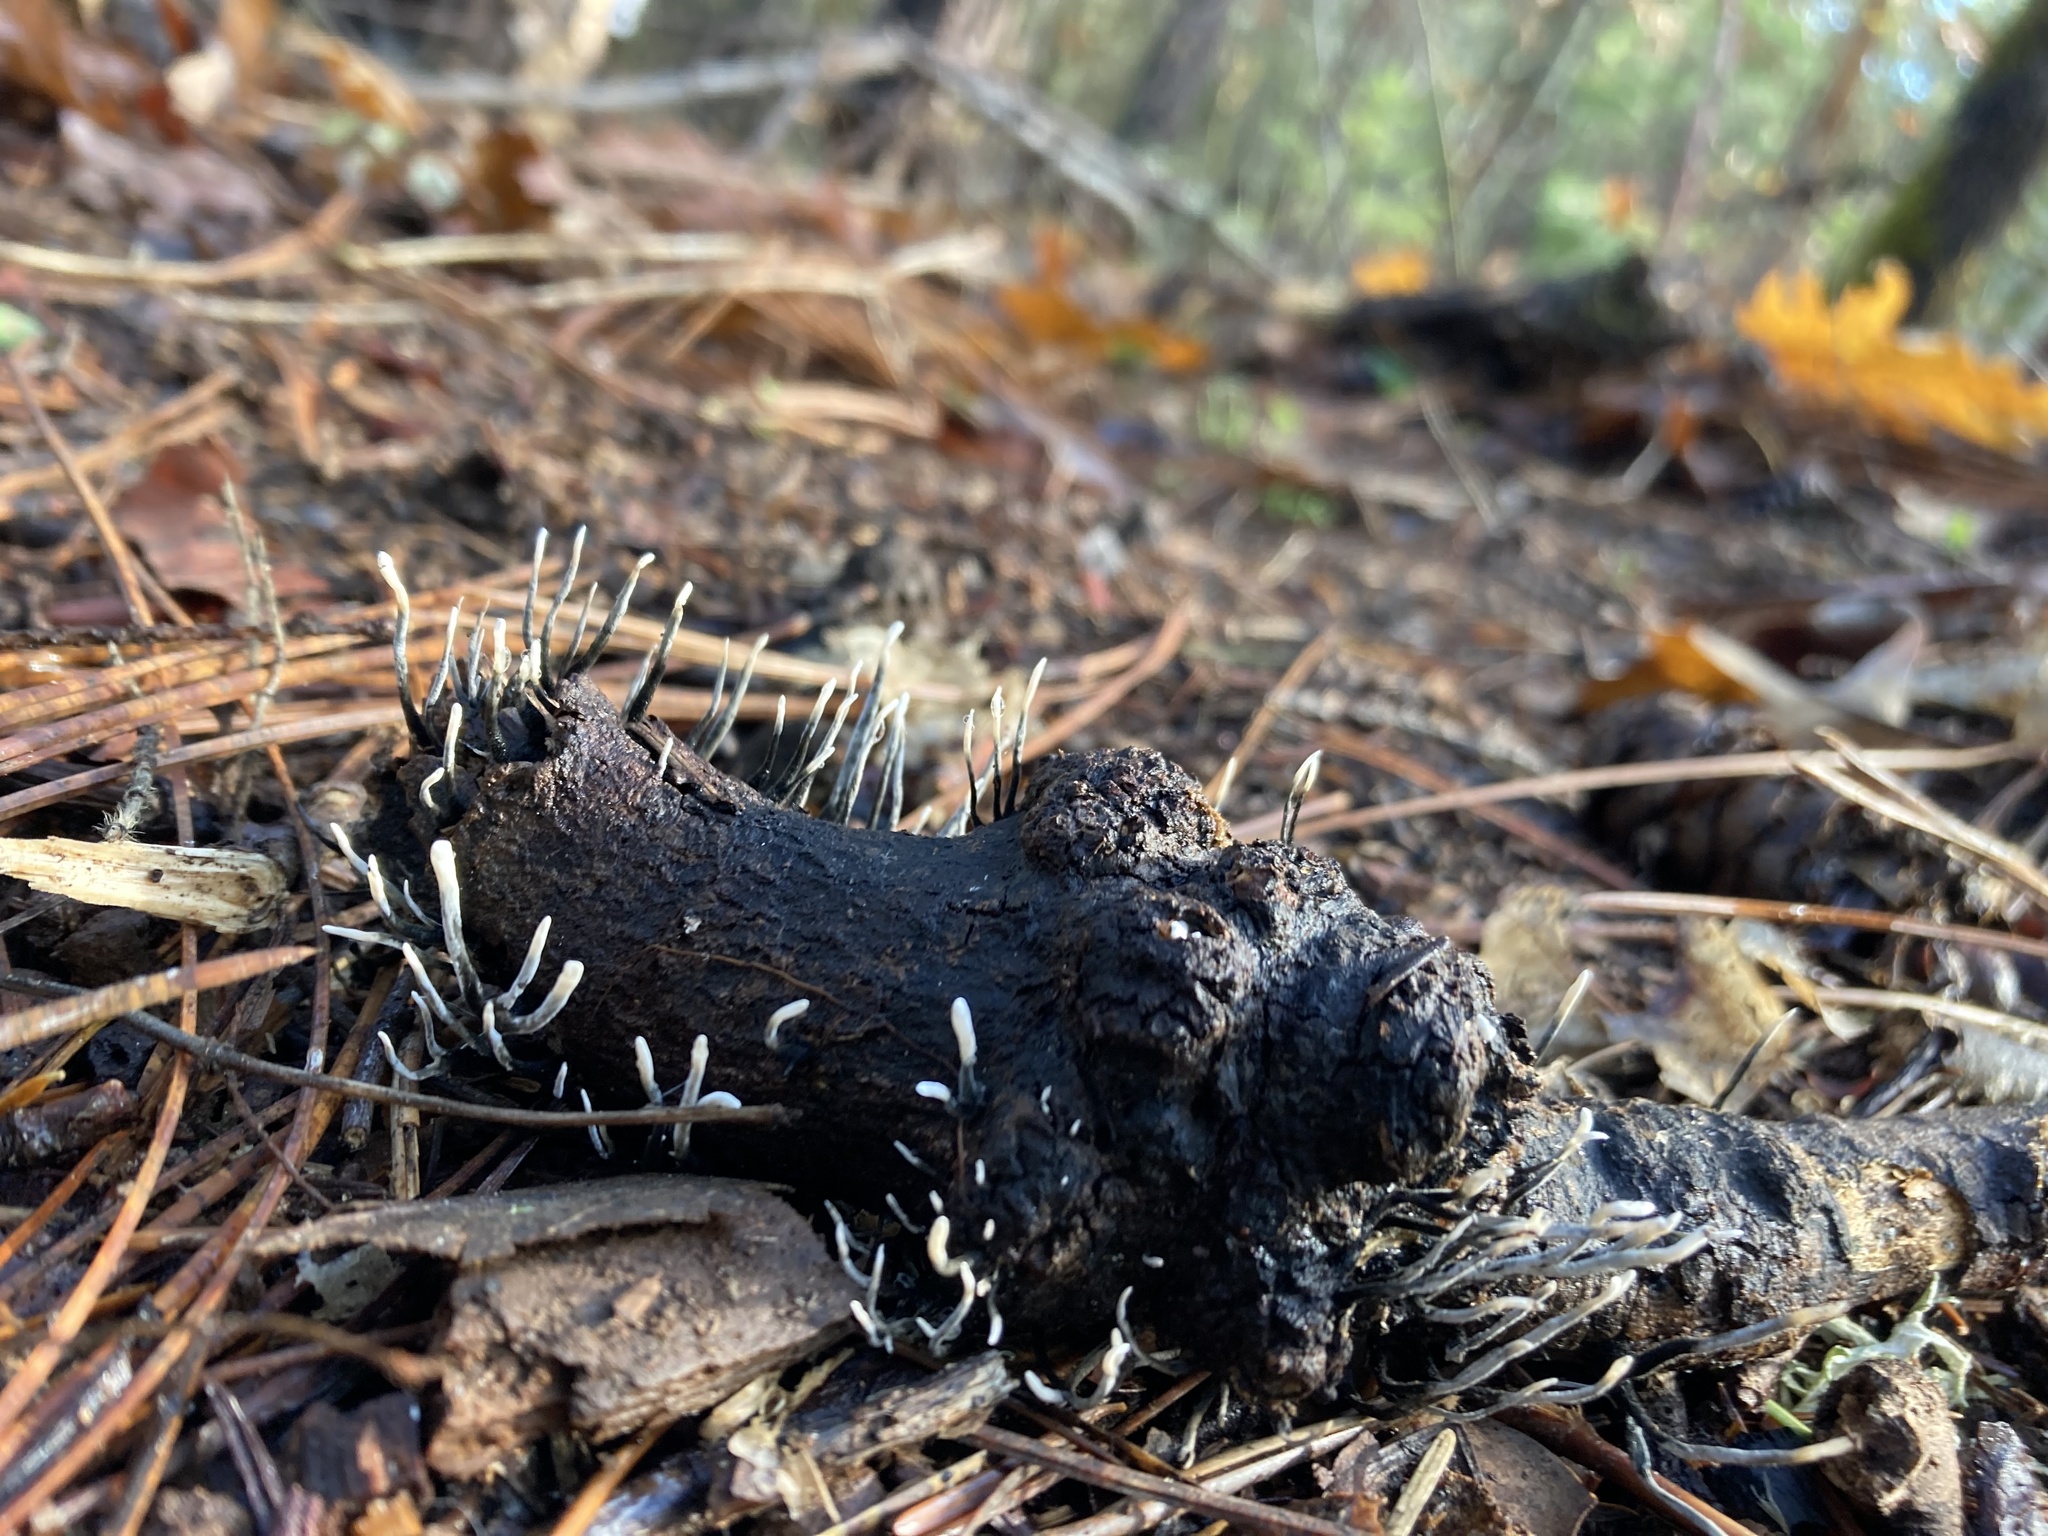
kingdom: Fungi
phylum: Ascomycota
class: Sordariomycetes
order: Xylariales
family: Xylariaceae
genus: Xylaria
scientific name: Xylaria hypoxylon
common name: Candle-snuff fungus
